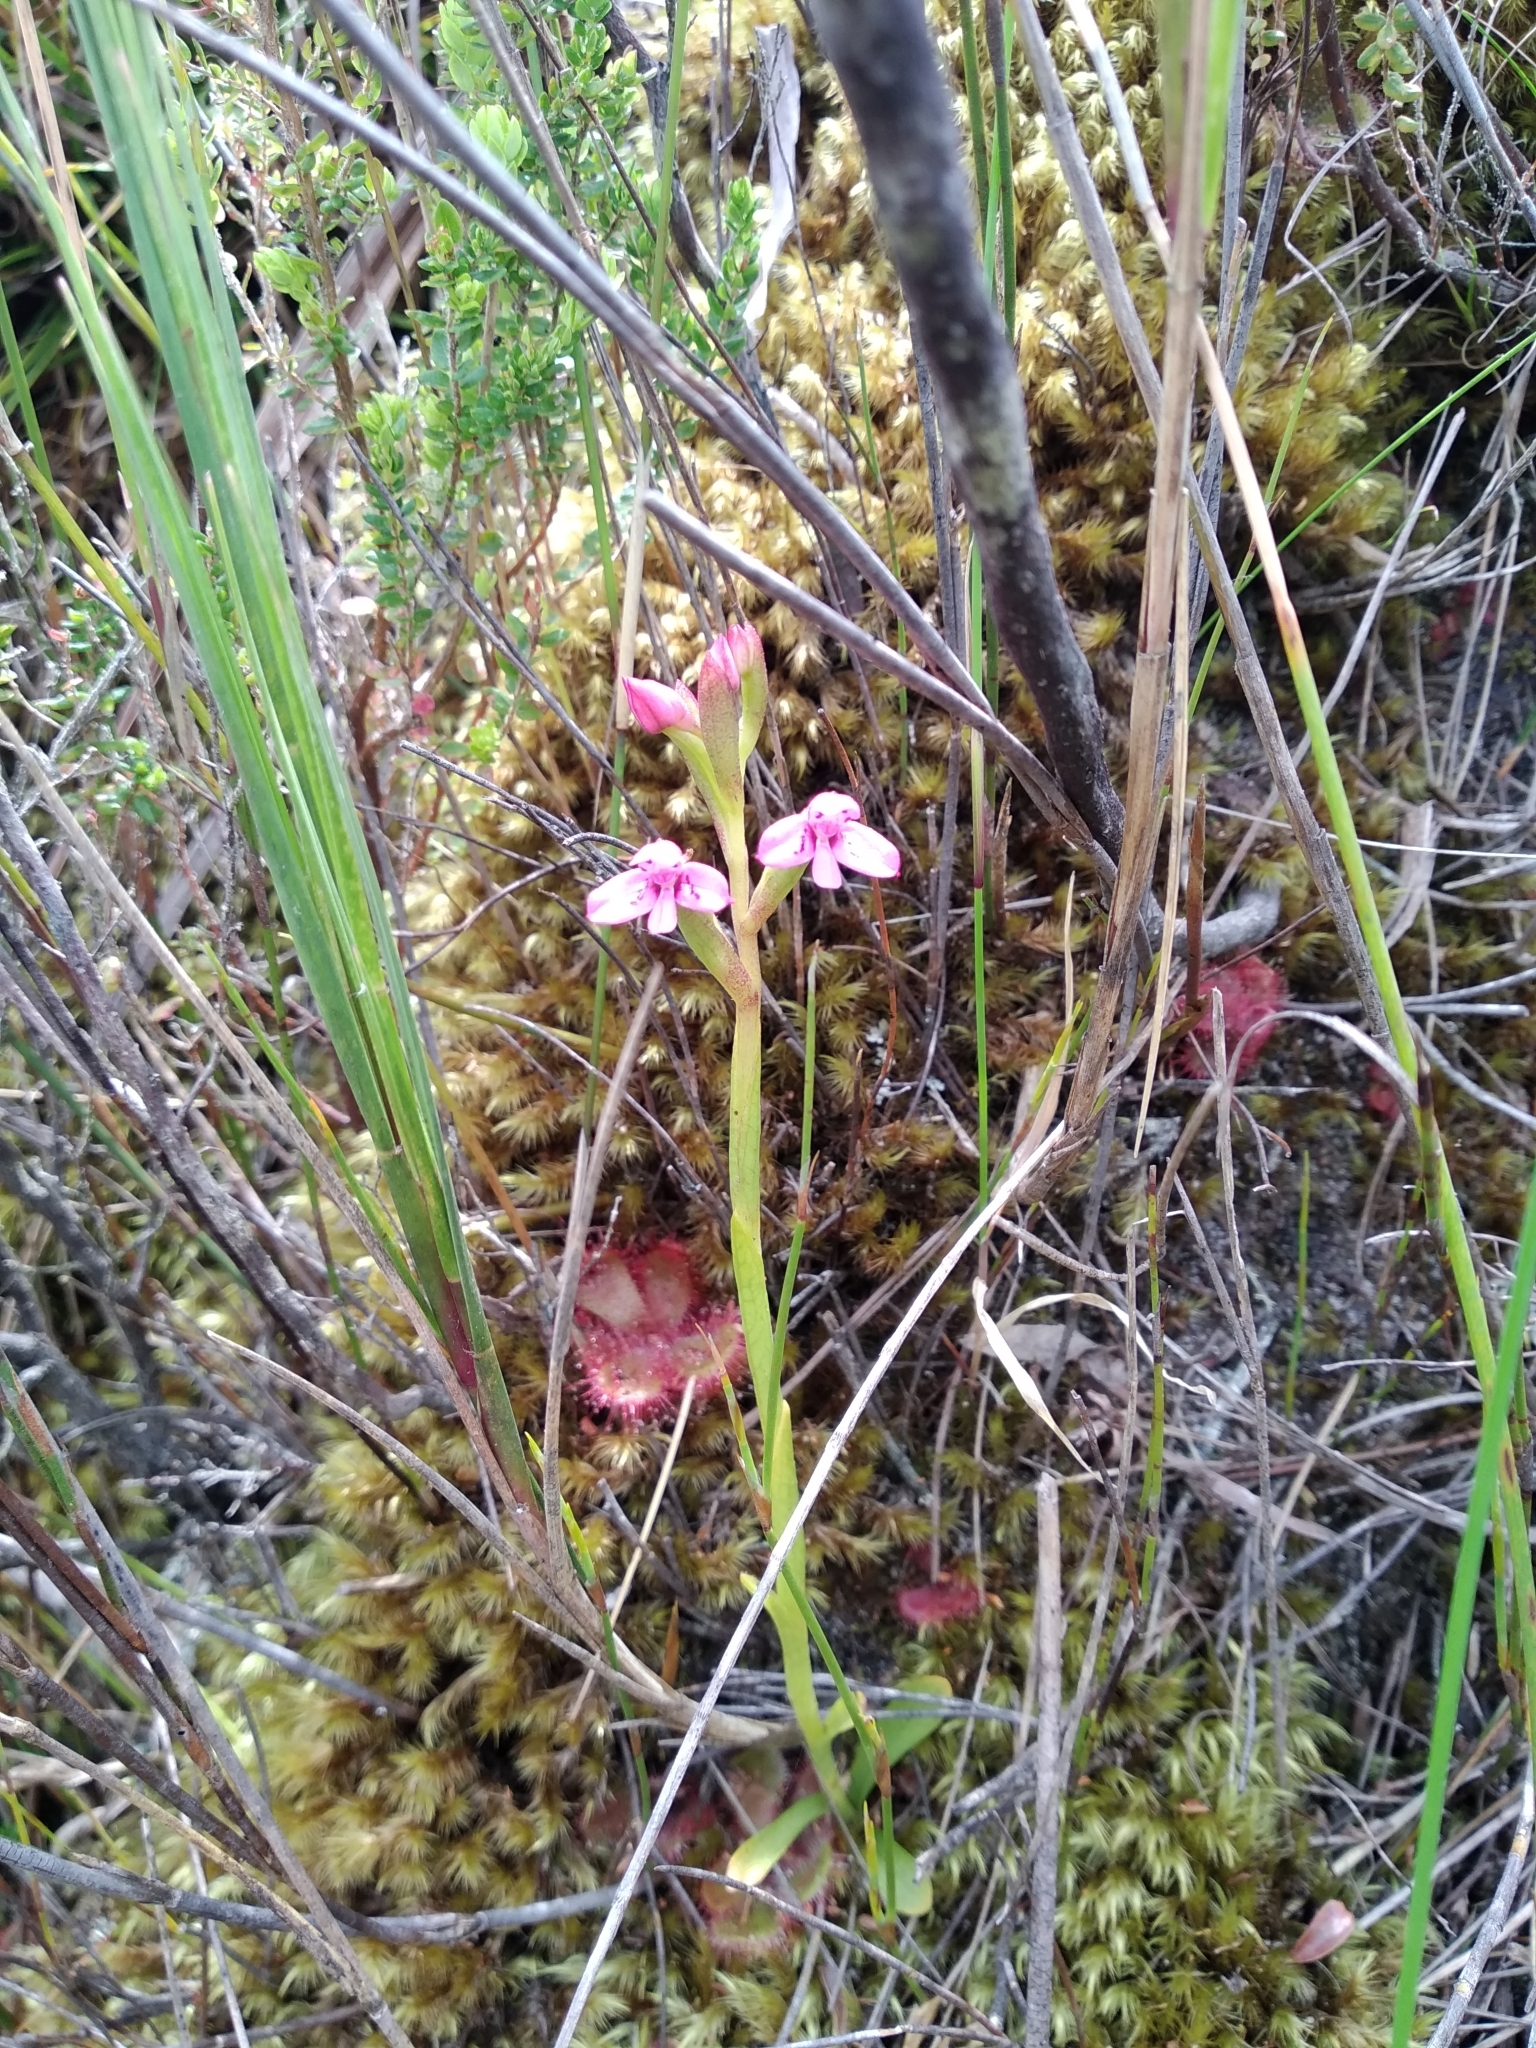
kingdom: Plantae
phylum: Tracheophyta
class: Liliopsida
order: Asparagales
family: Orchidaceae
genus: Disa
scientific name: Disa vaginata
